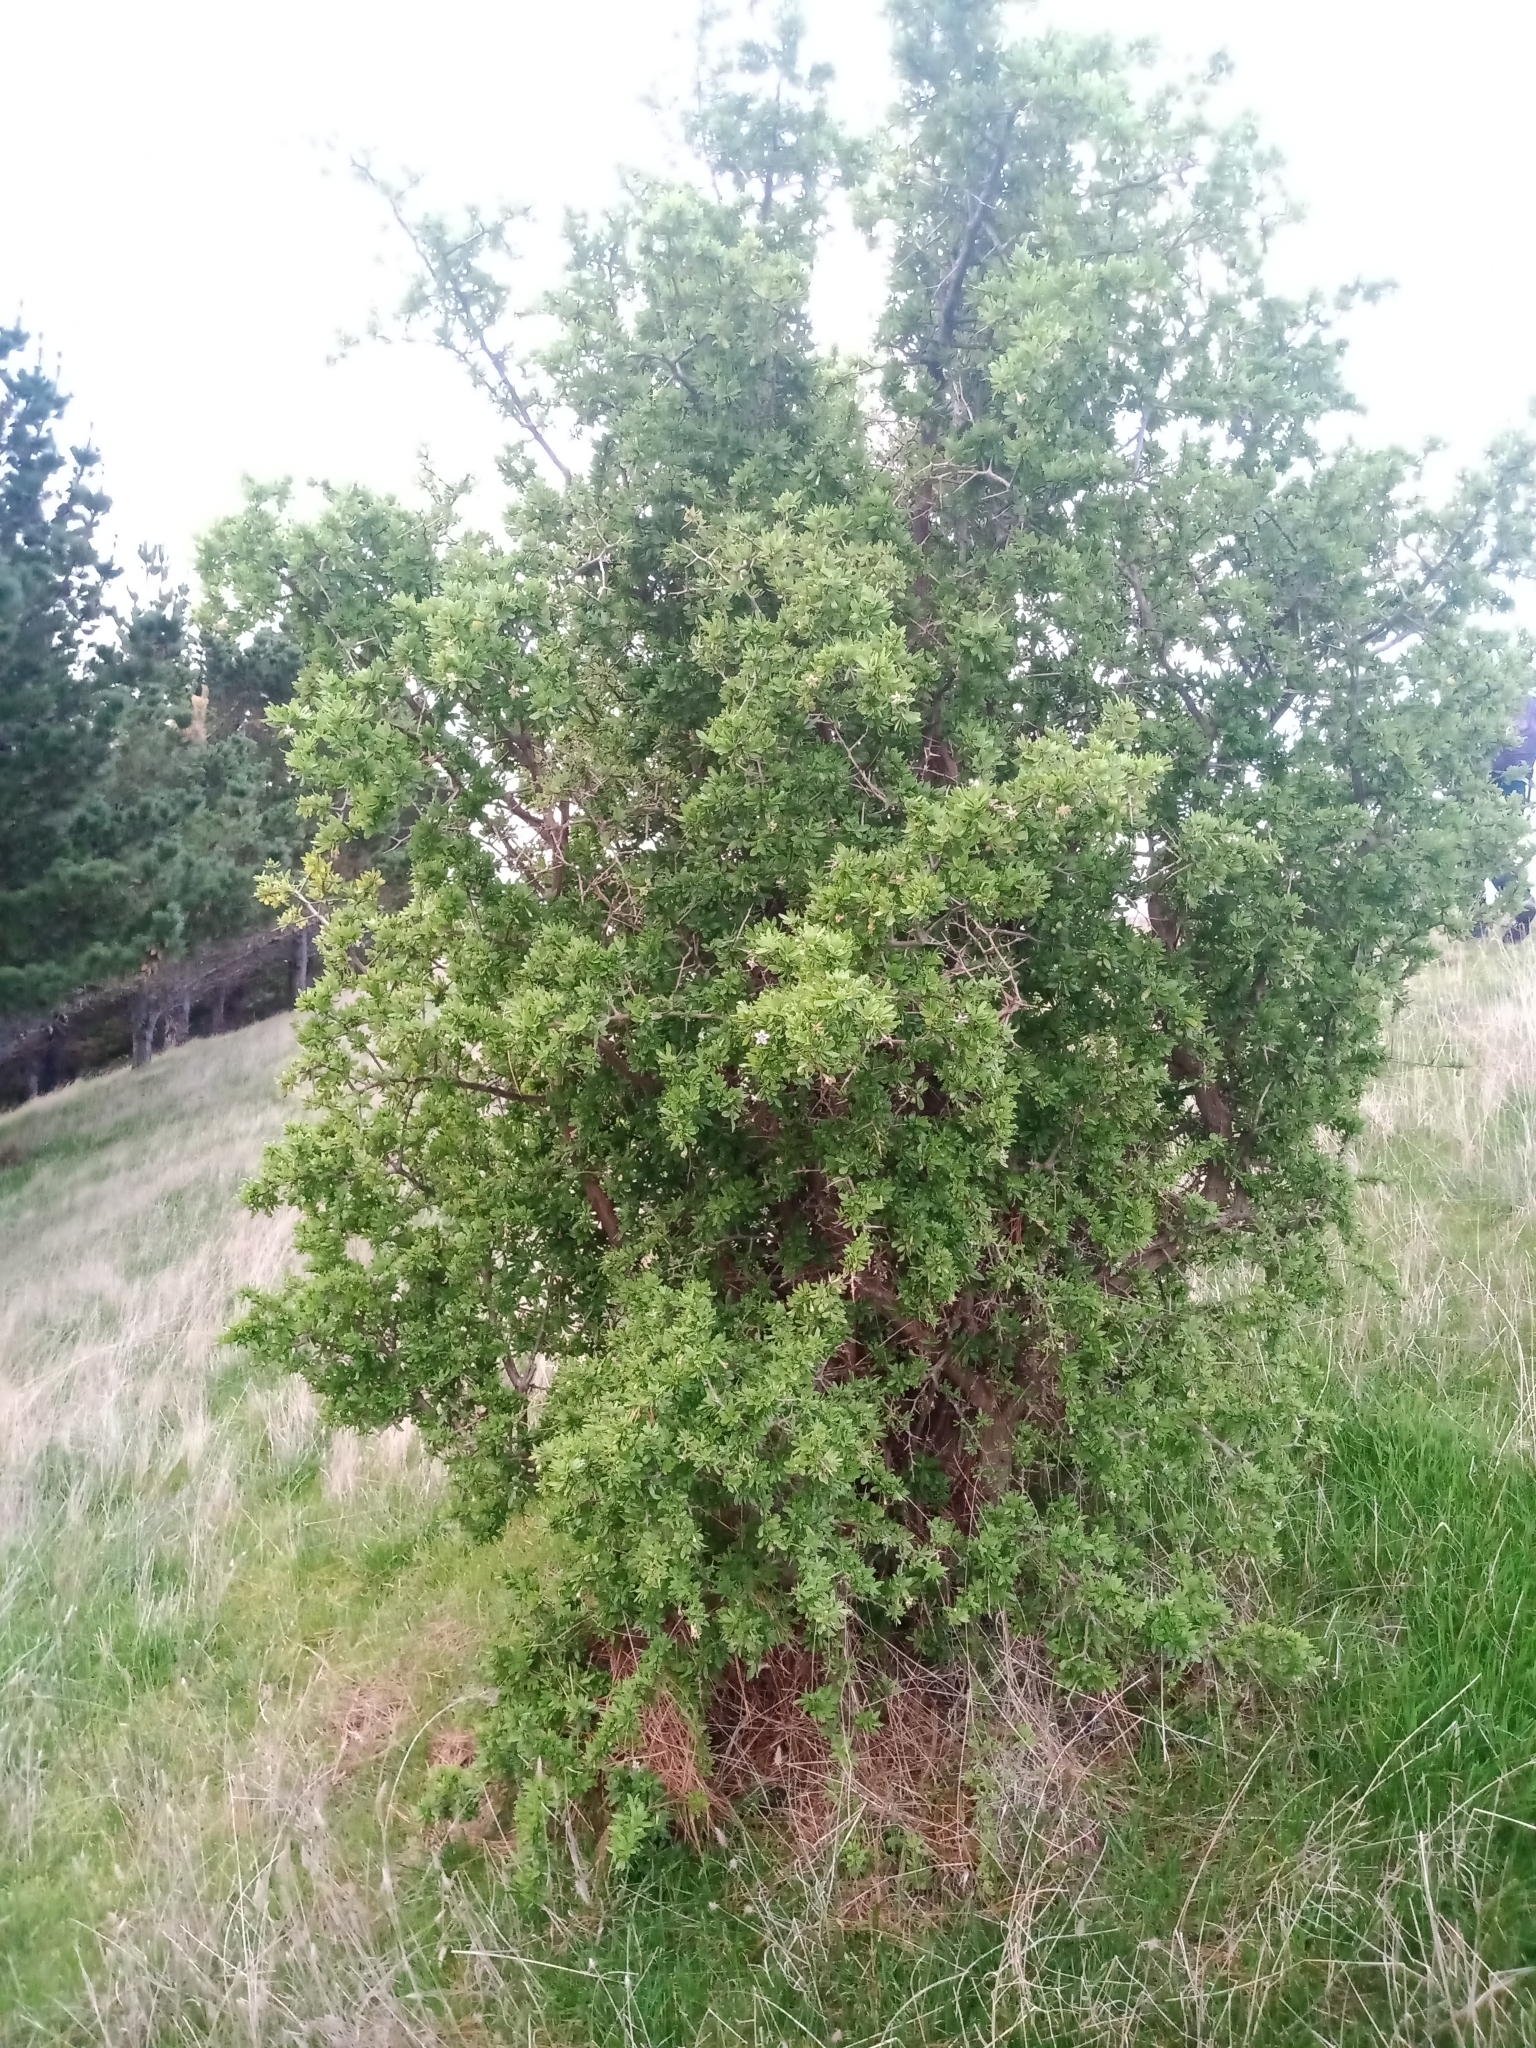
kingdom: Plantae
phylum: Tracheophyta
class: Magnoliopsida
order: Solanales
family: Solanaceae
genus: Lycium
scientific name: Lycium ferocissimum
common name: African boxthorn
